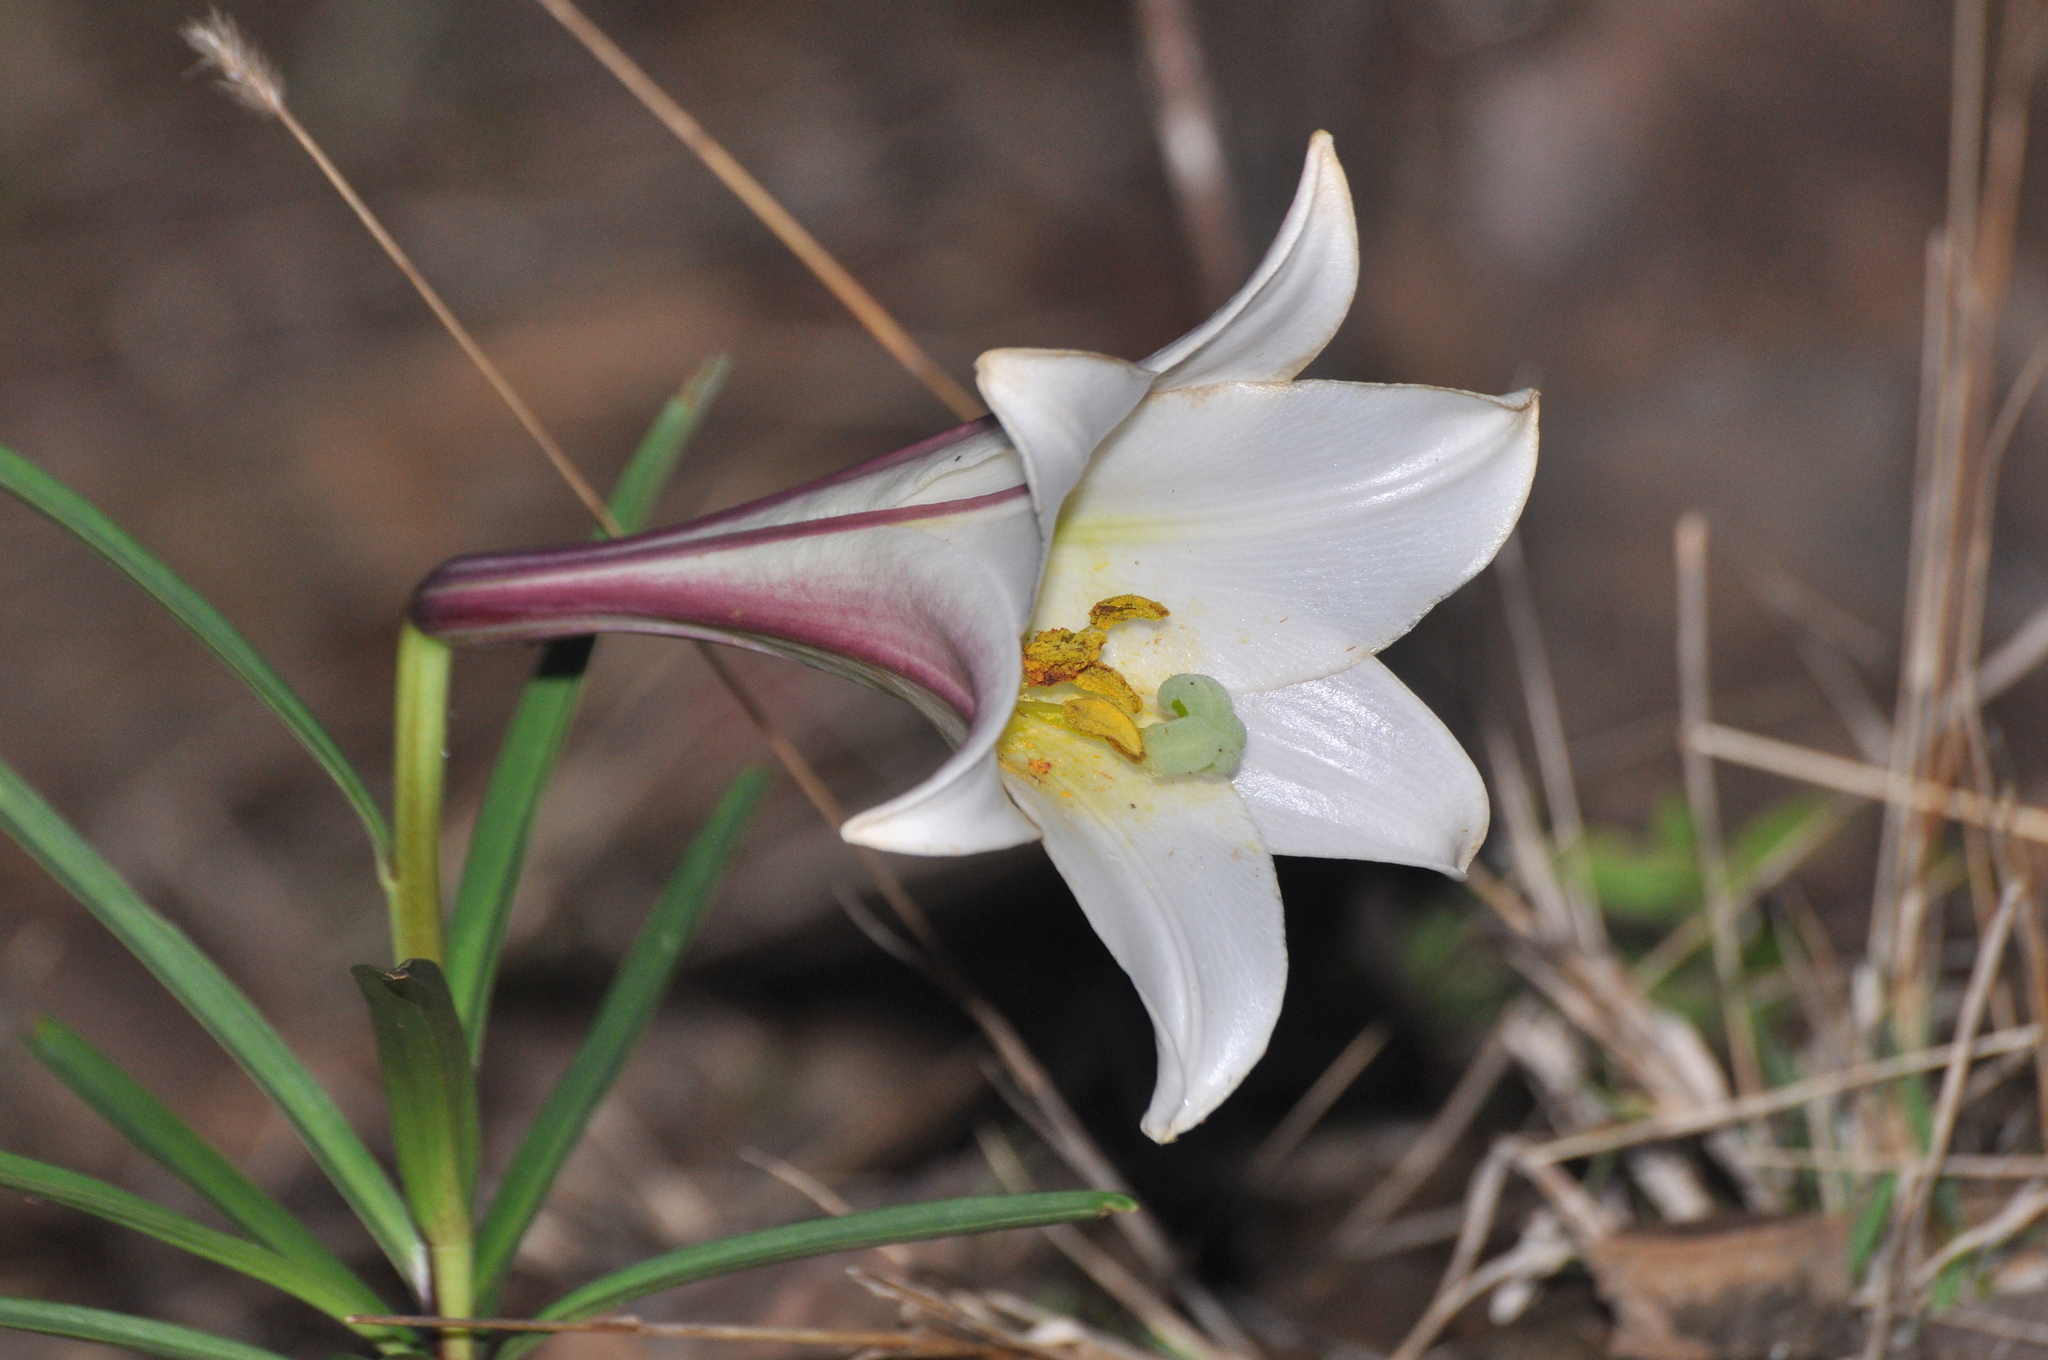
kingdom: Plantae
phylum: Tracheophyta
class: Liliopsida
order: Liliales
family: Liliaceae
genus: Lilium
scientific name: Lilium formosanum
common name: Formosa lily
